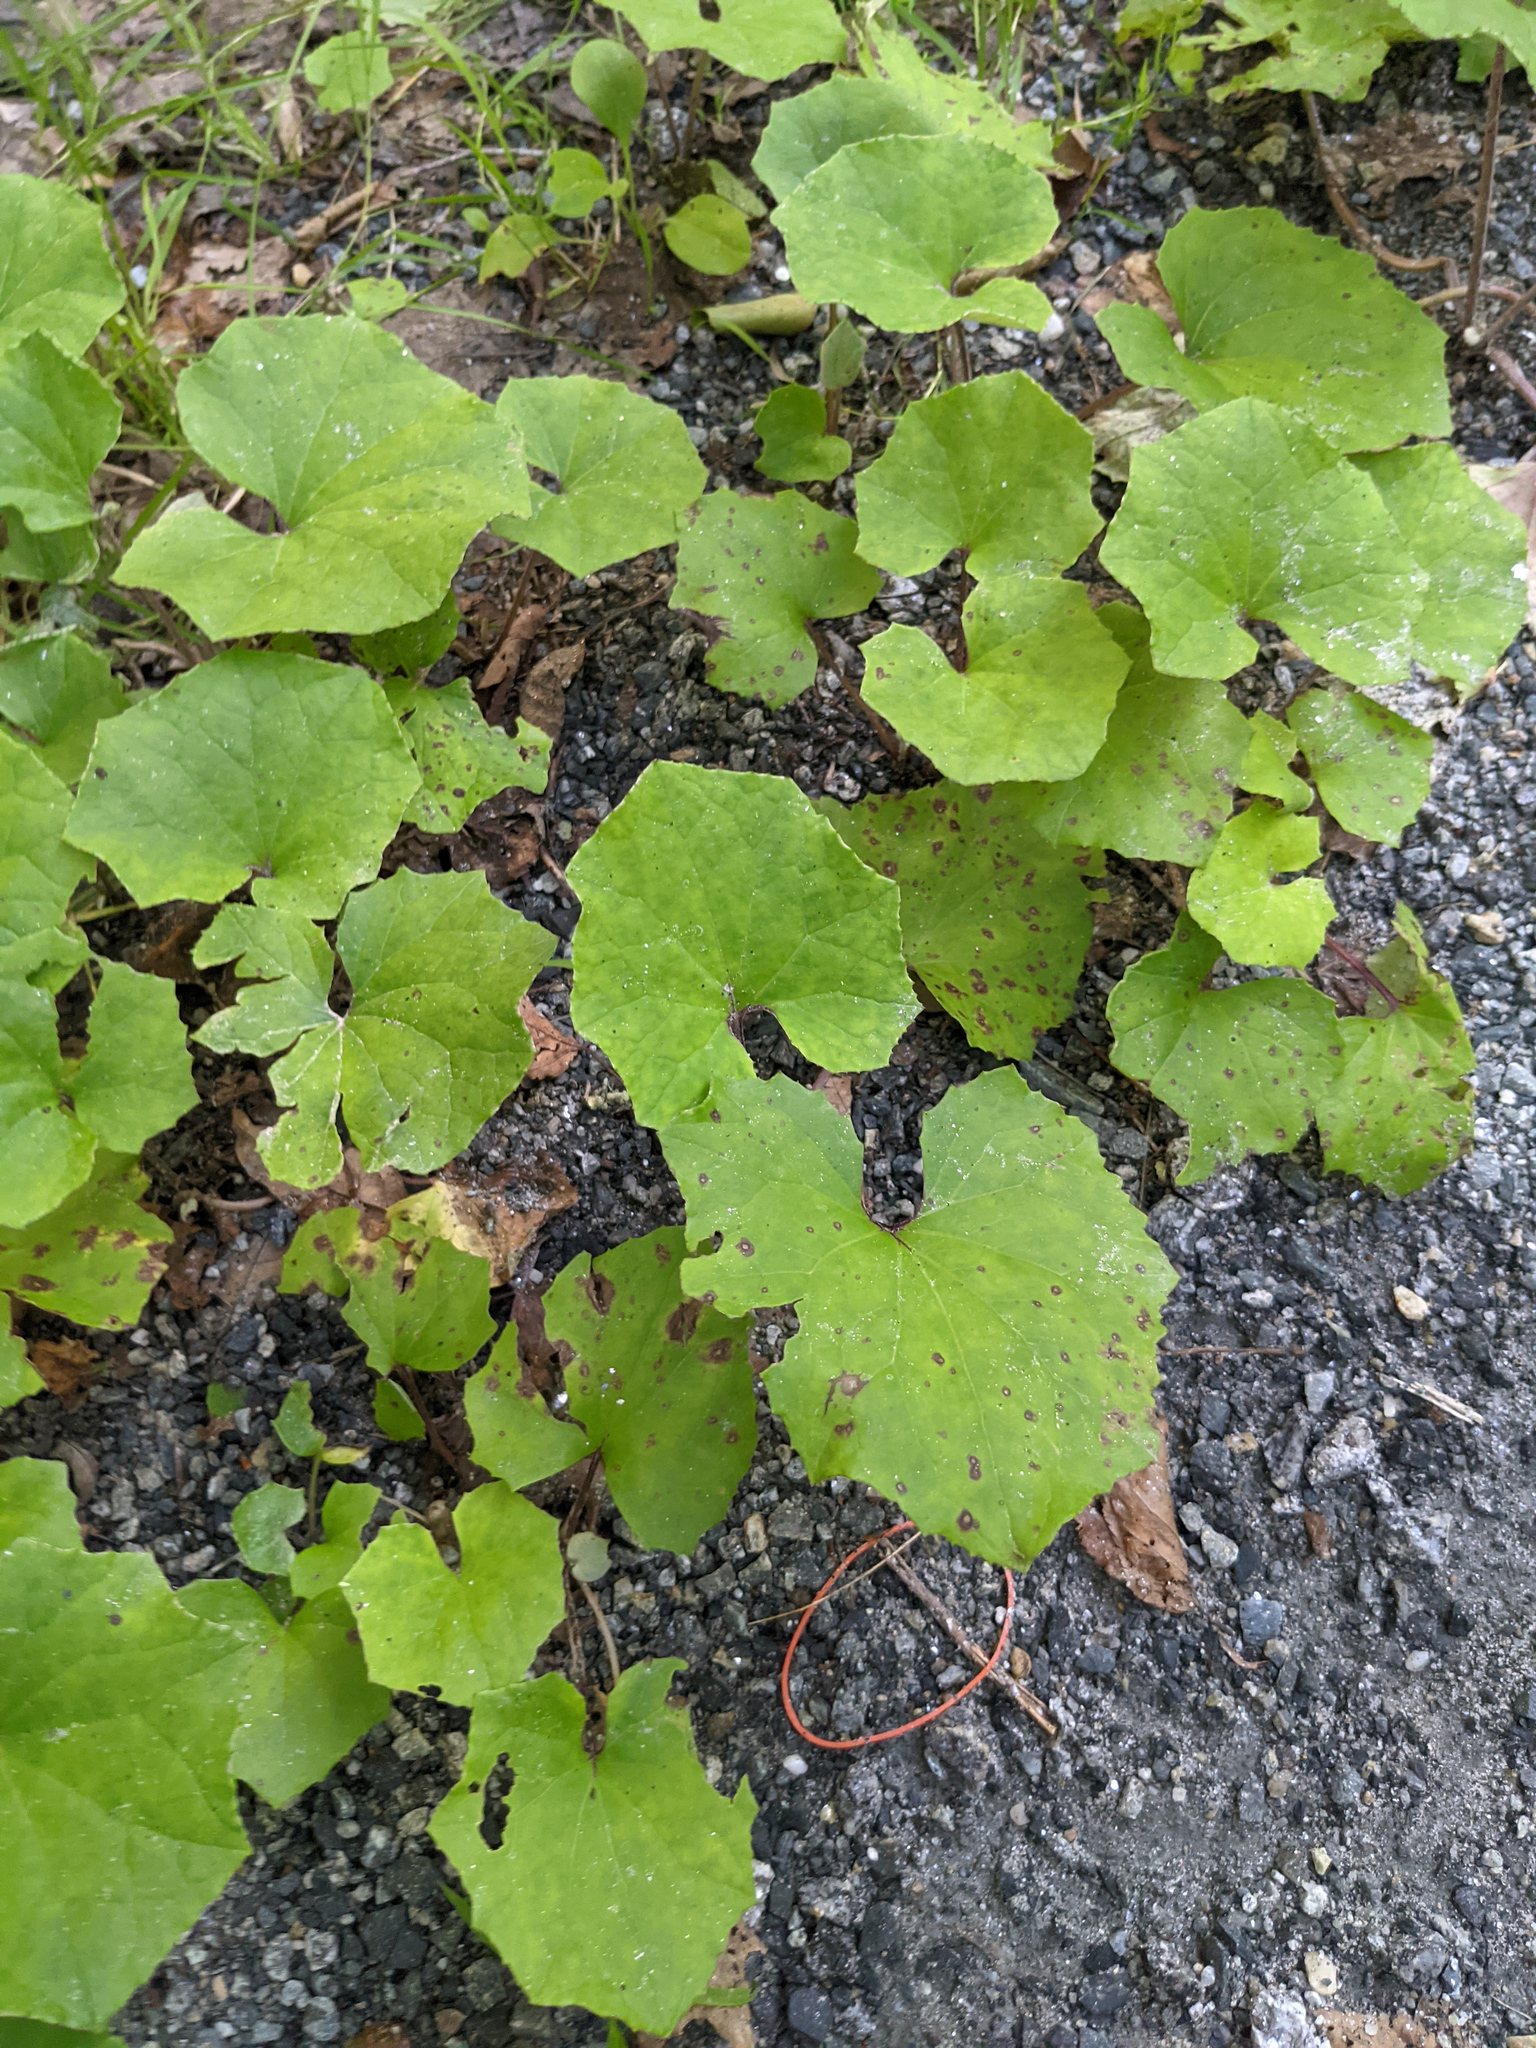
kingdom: Plantae
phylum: Tracheophyta
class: Magnoliopsida
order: Asterales
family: Asteraceae
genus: Tussilago
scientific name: Tussilago farfara
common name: Coltsfoot
